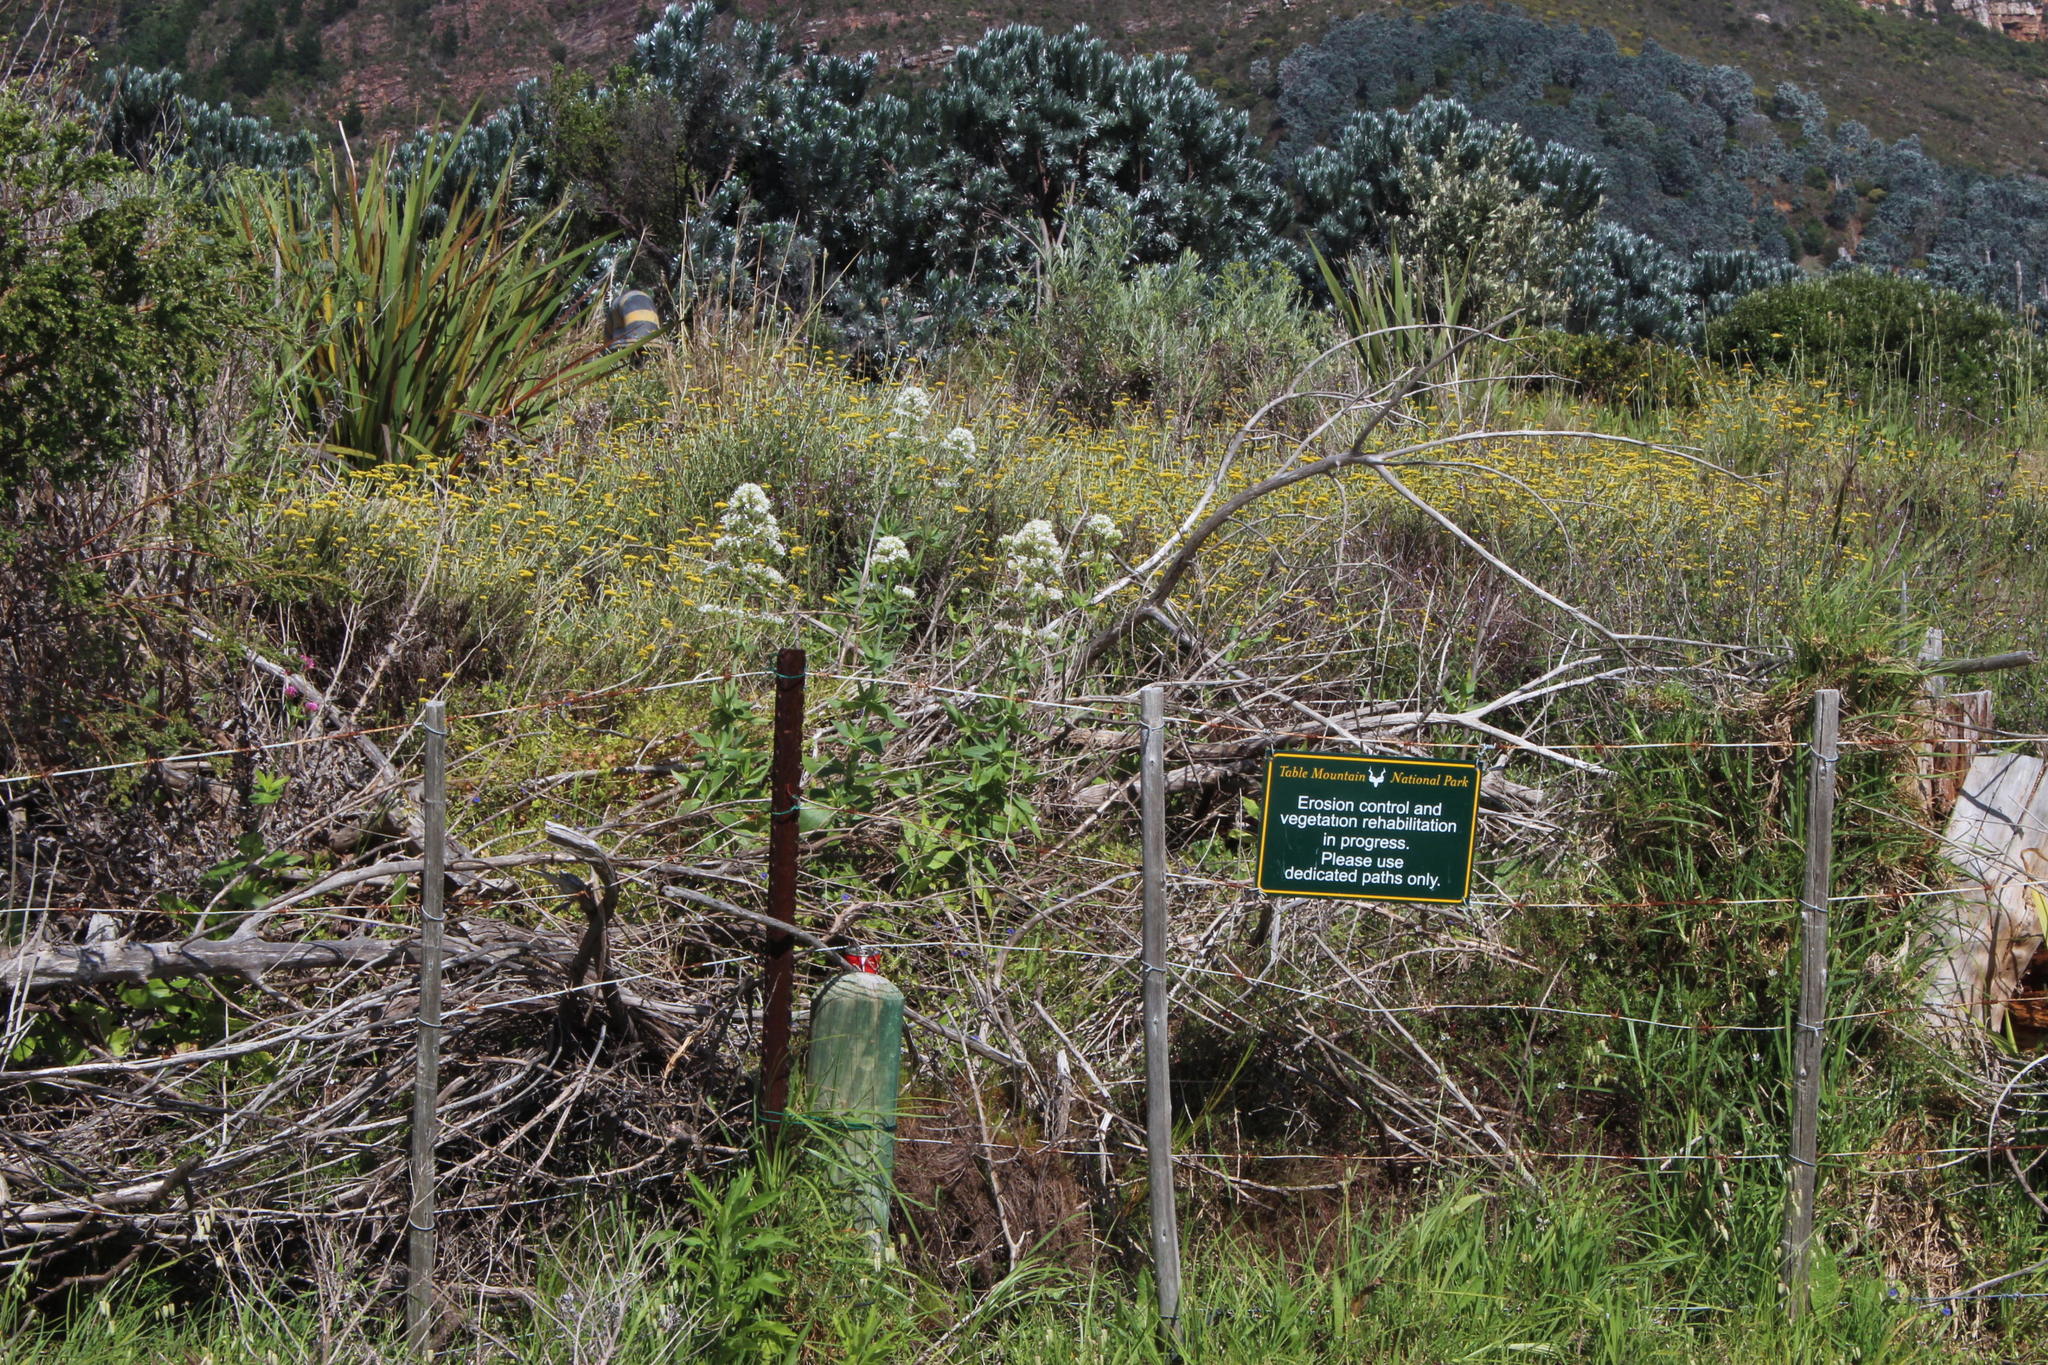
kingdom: Plantae
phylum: Tracheophyta
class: Magnoliopsida
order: Dipsacales
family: Caprifoliaceae
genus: Centranthus
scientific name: Centranthus ruber
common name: Red valerian
